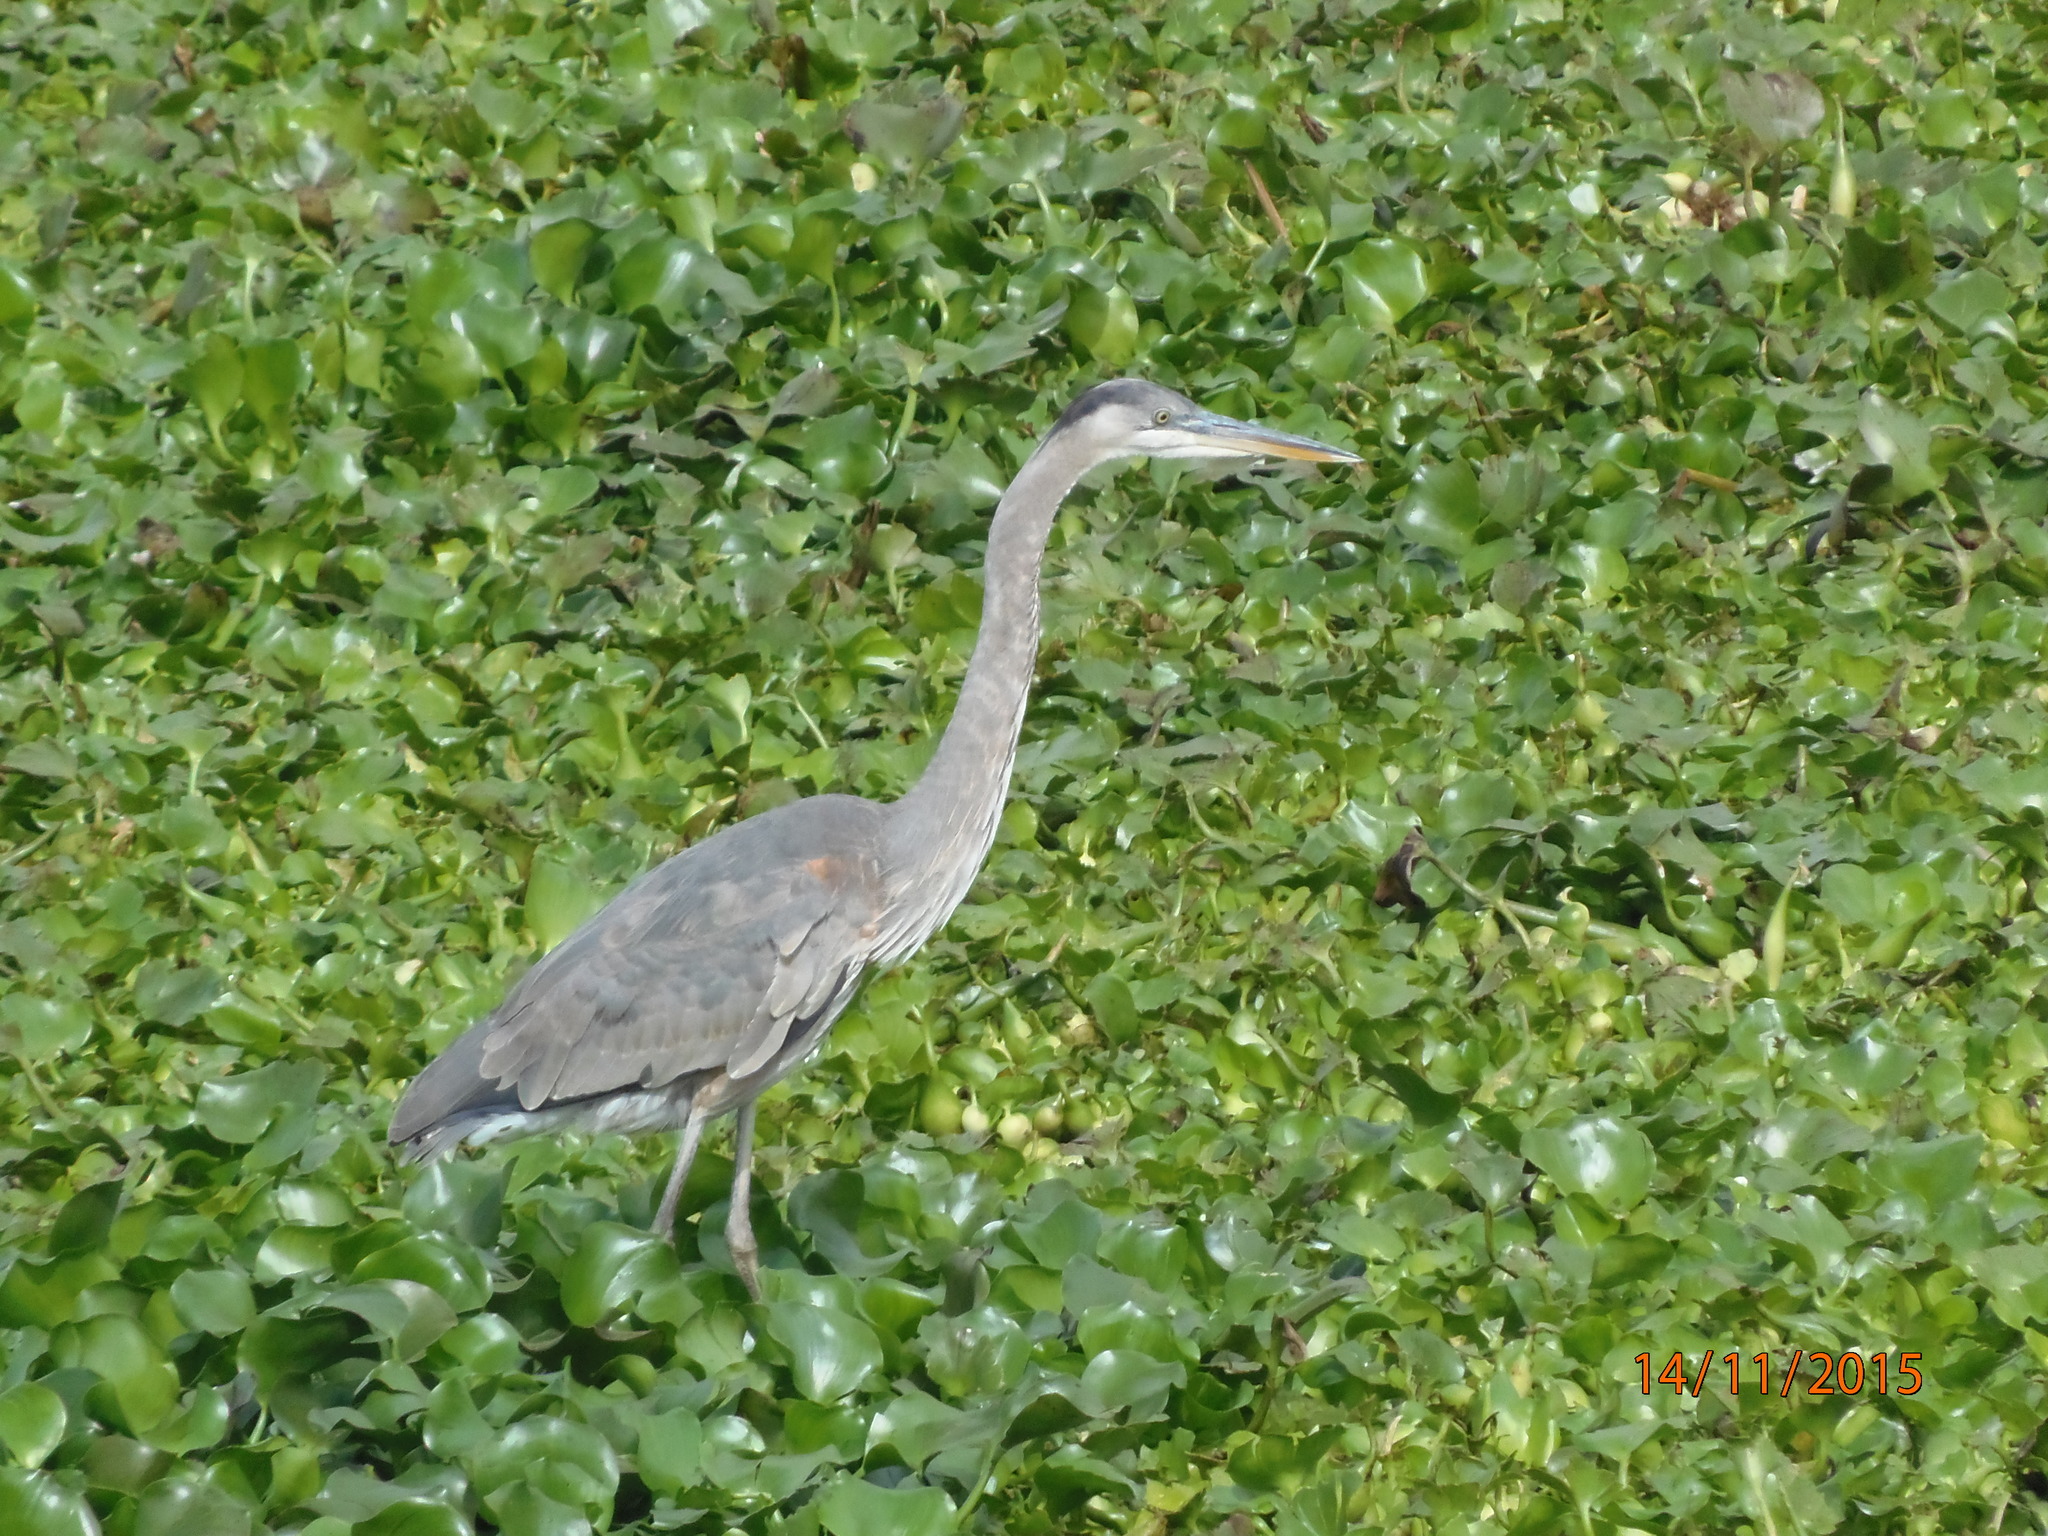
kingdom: Animalia
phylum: Chordata
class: Aves
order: Pelecaniformes
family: Ardeidae
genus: Ardea
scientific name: Ardea herodias
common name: Great blue heron
